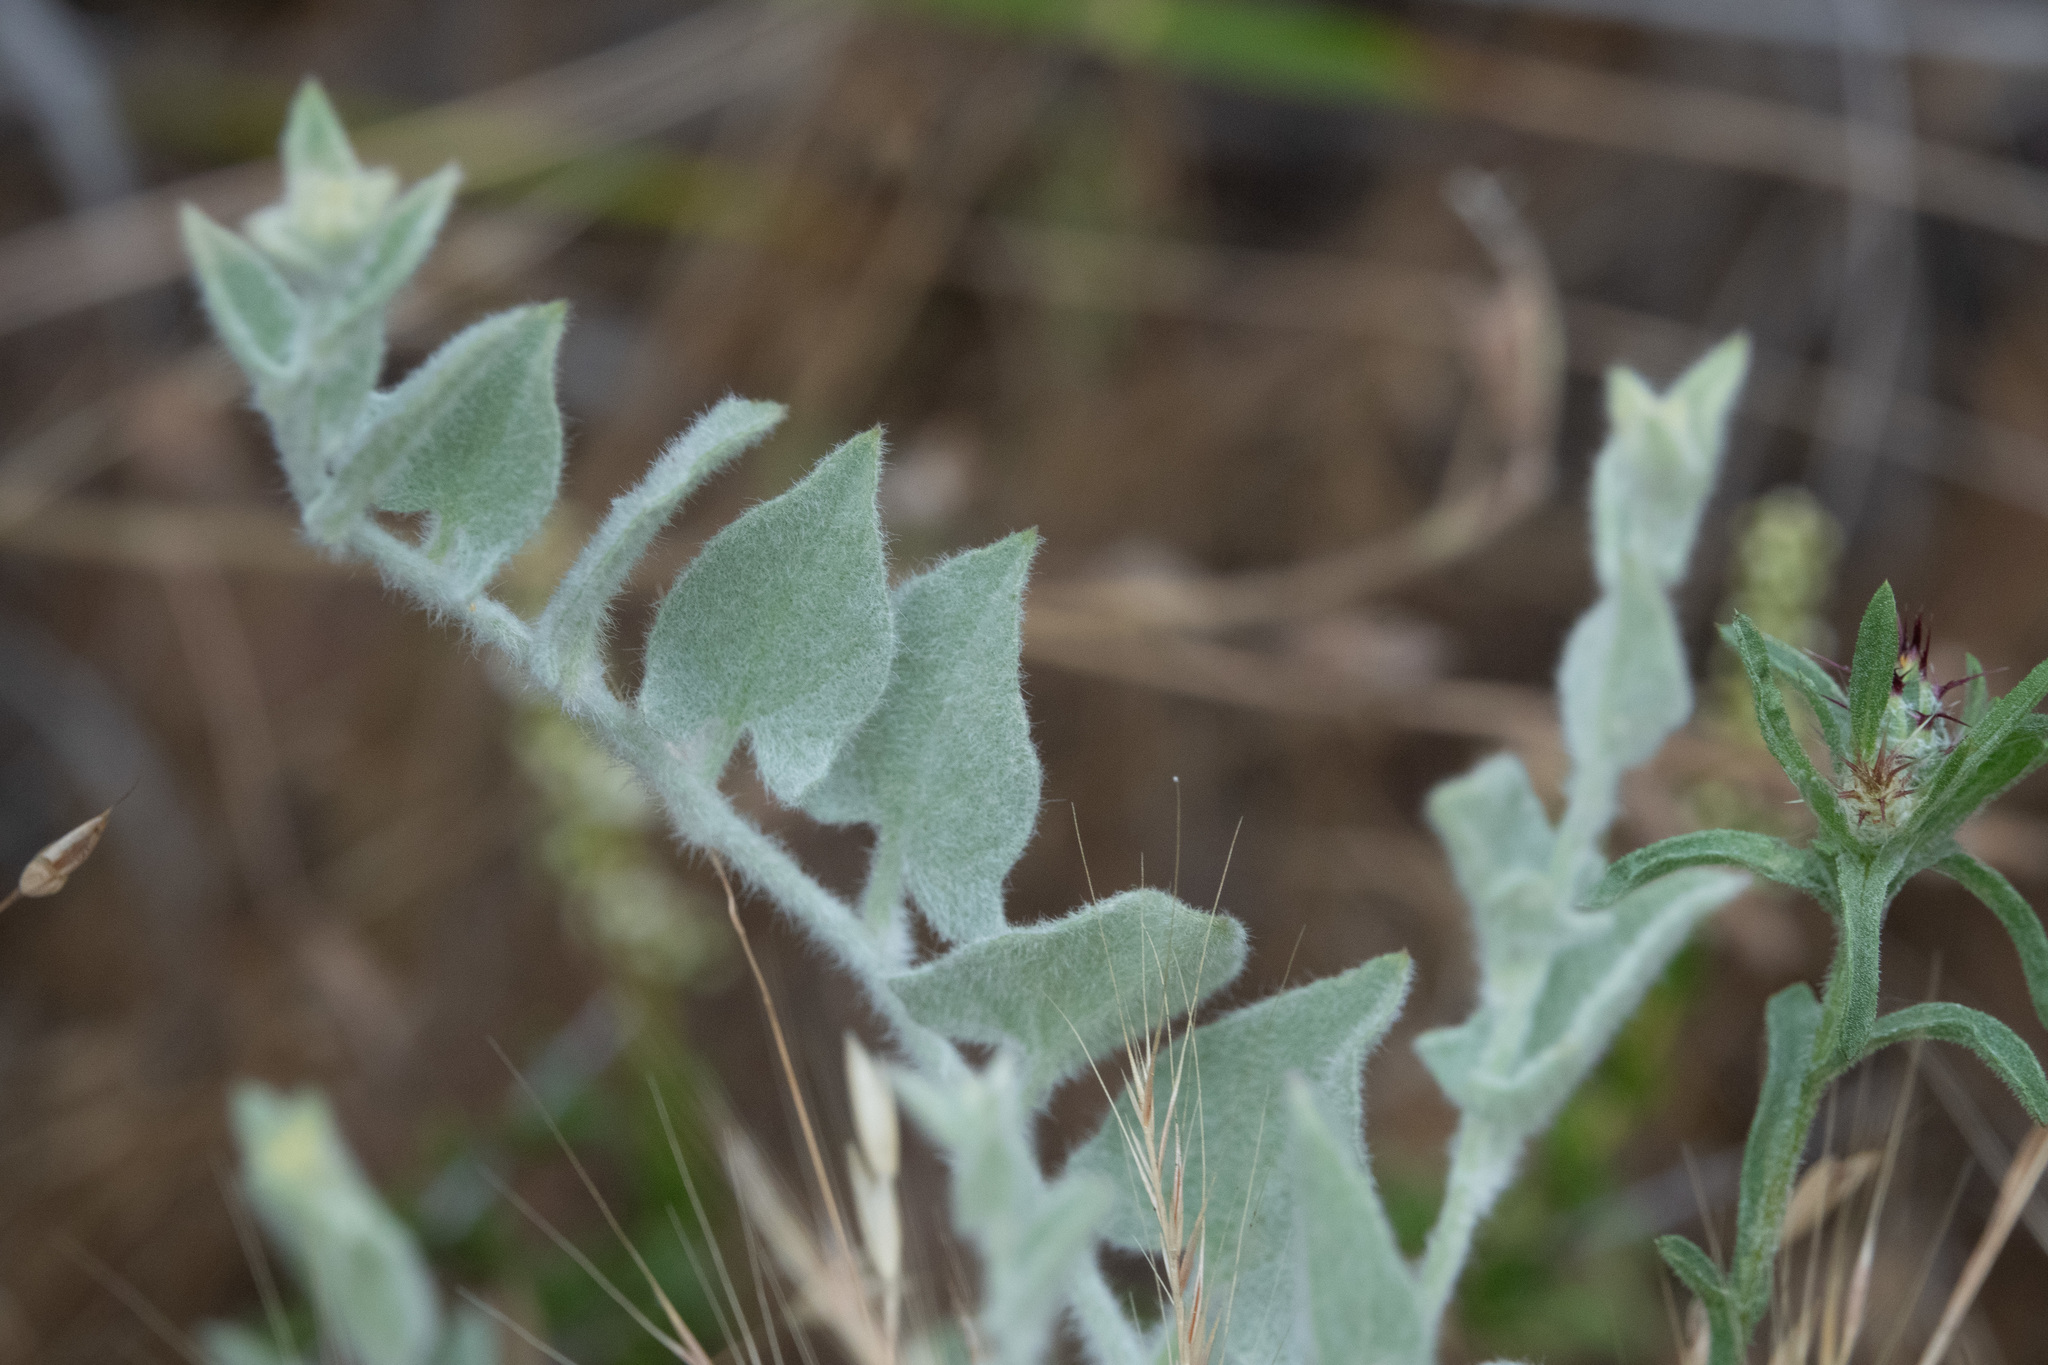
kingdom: Plantae
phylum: Tracheophyta
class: Magnoliopsida
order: Solanales
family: Convolvulaceae
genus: Calystegia
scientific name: Calystegia malacophylla
